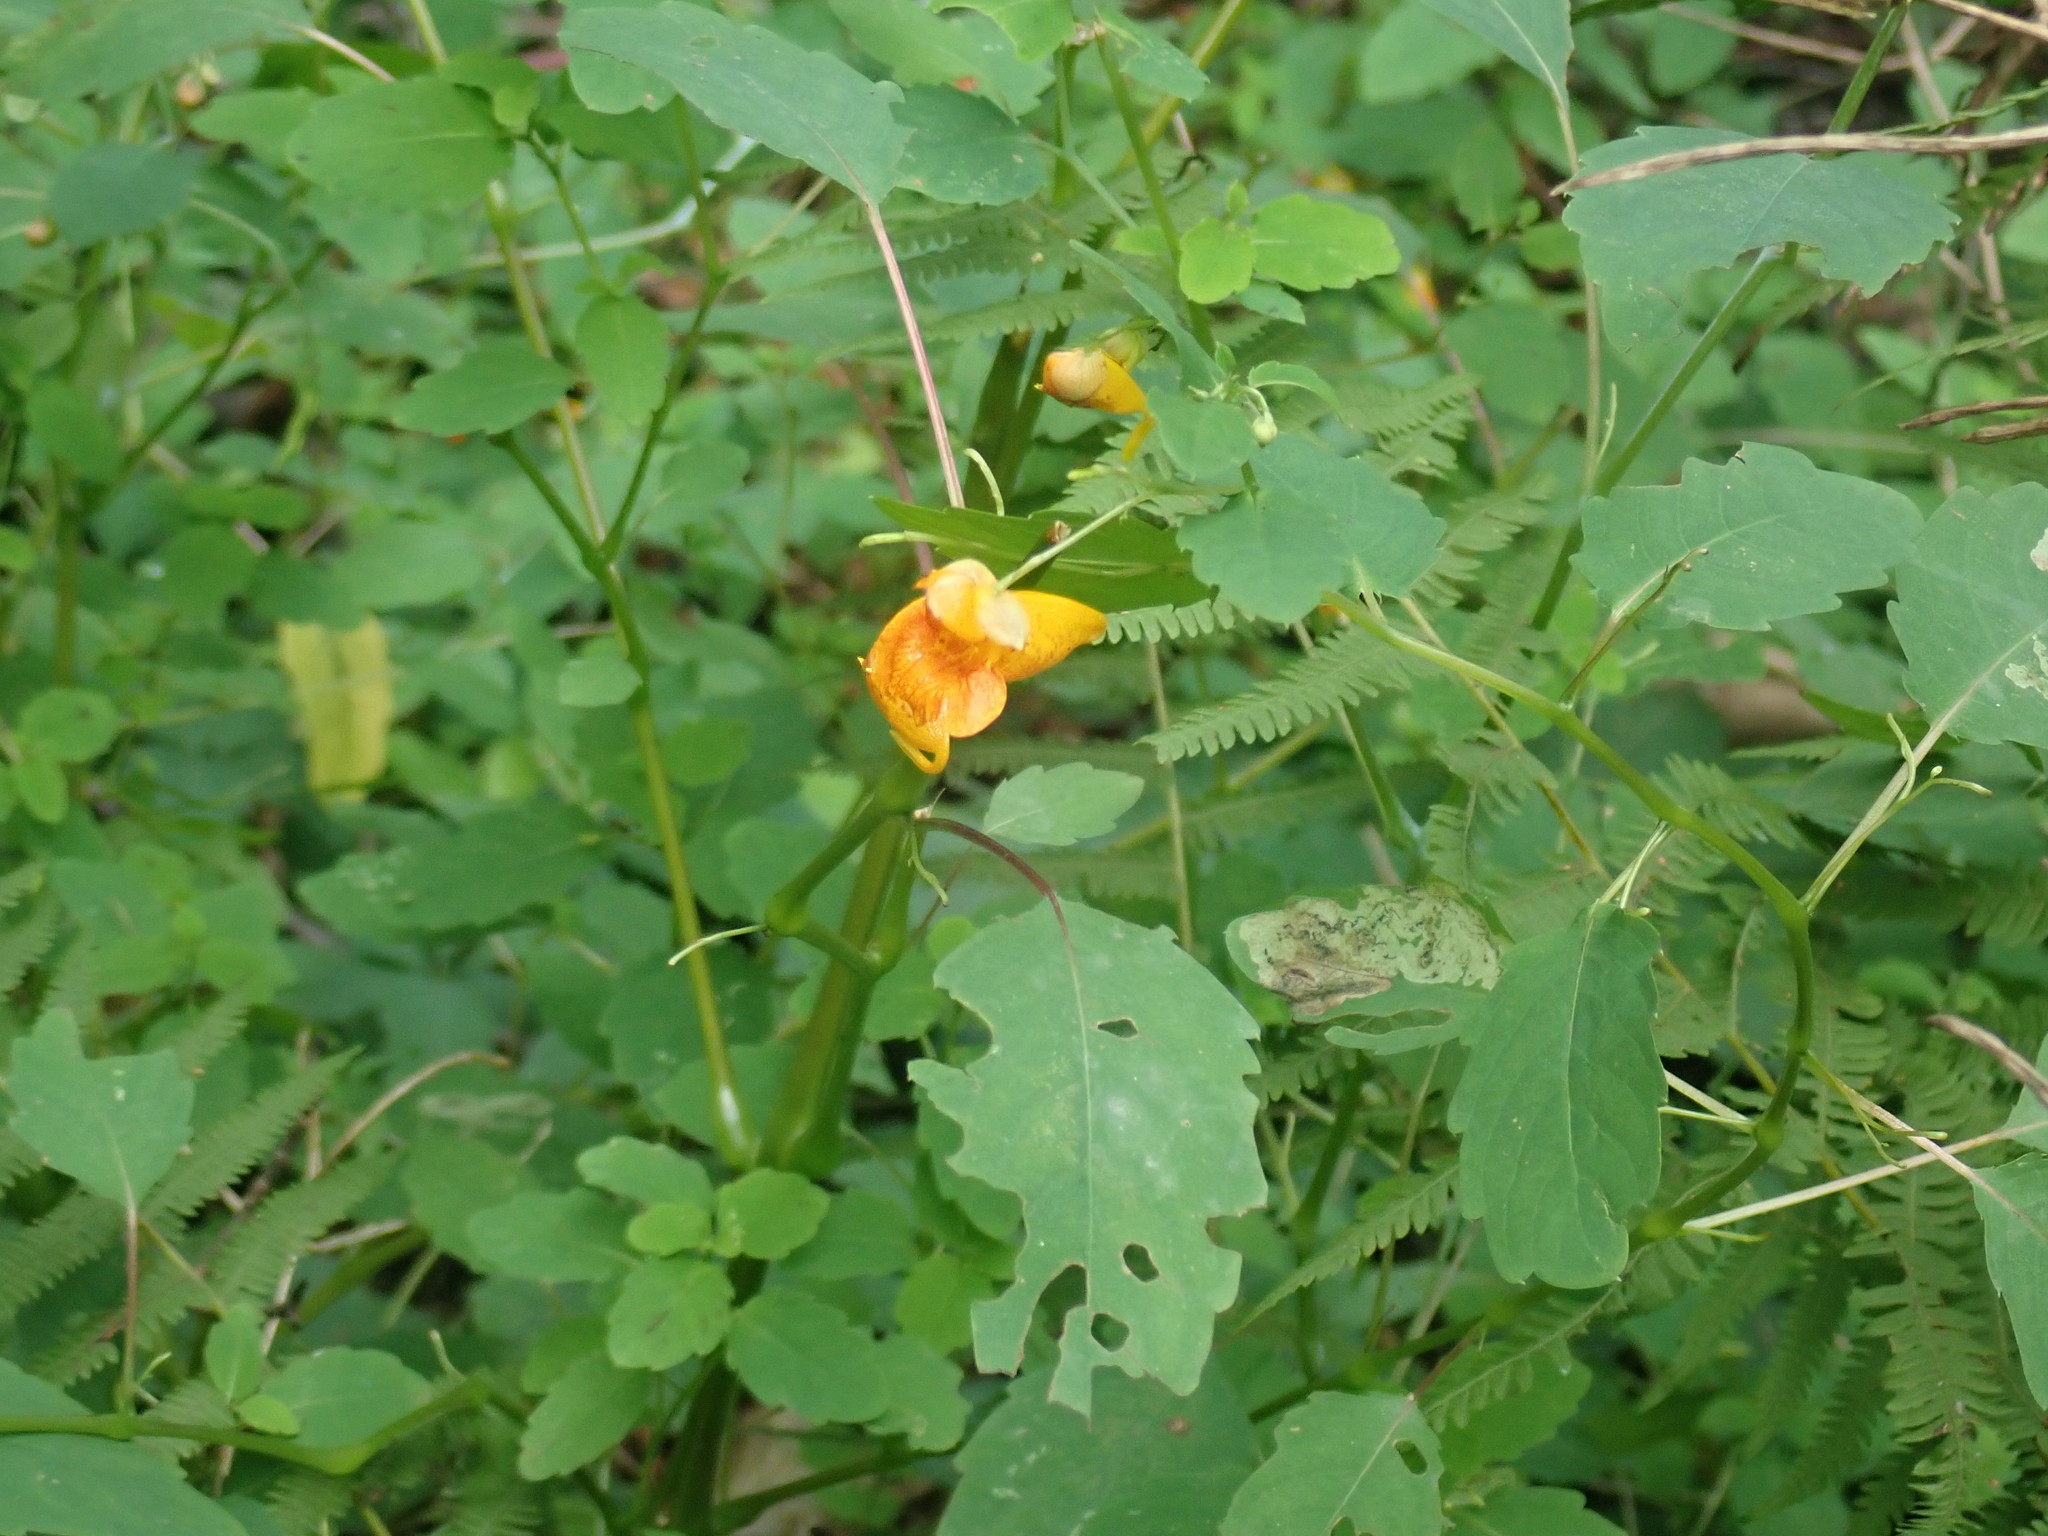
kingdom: Plantae
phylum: Tracheophyta
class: Magnoliopsida
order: Ericales
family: Balsaminaceae
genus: Impatiens
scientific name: Impatiens capensis
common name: Orange balsam
